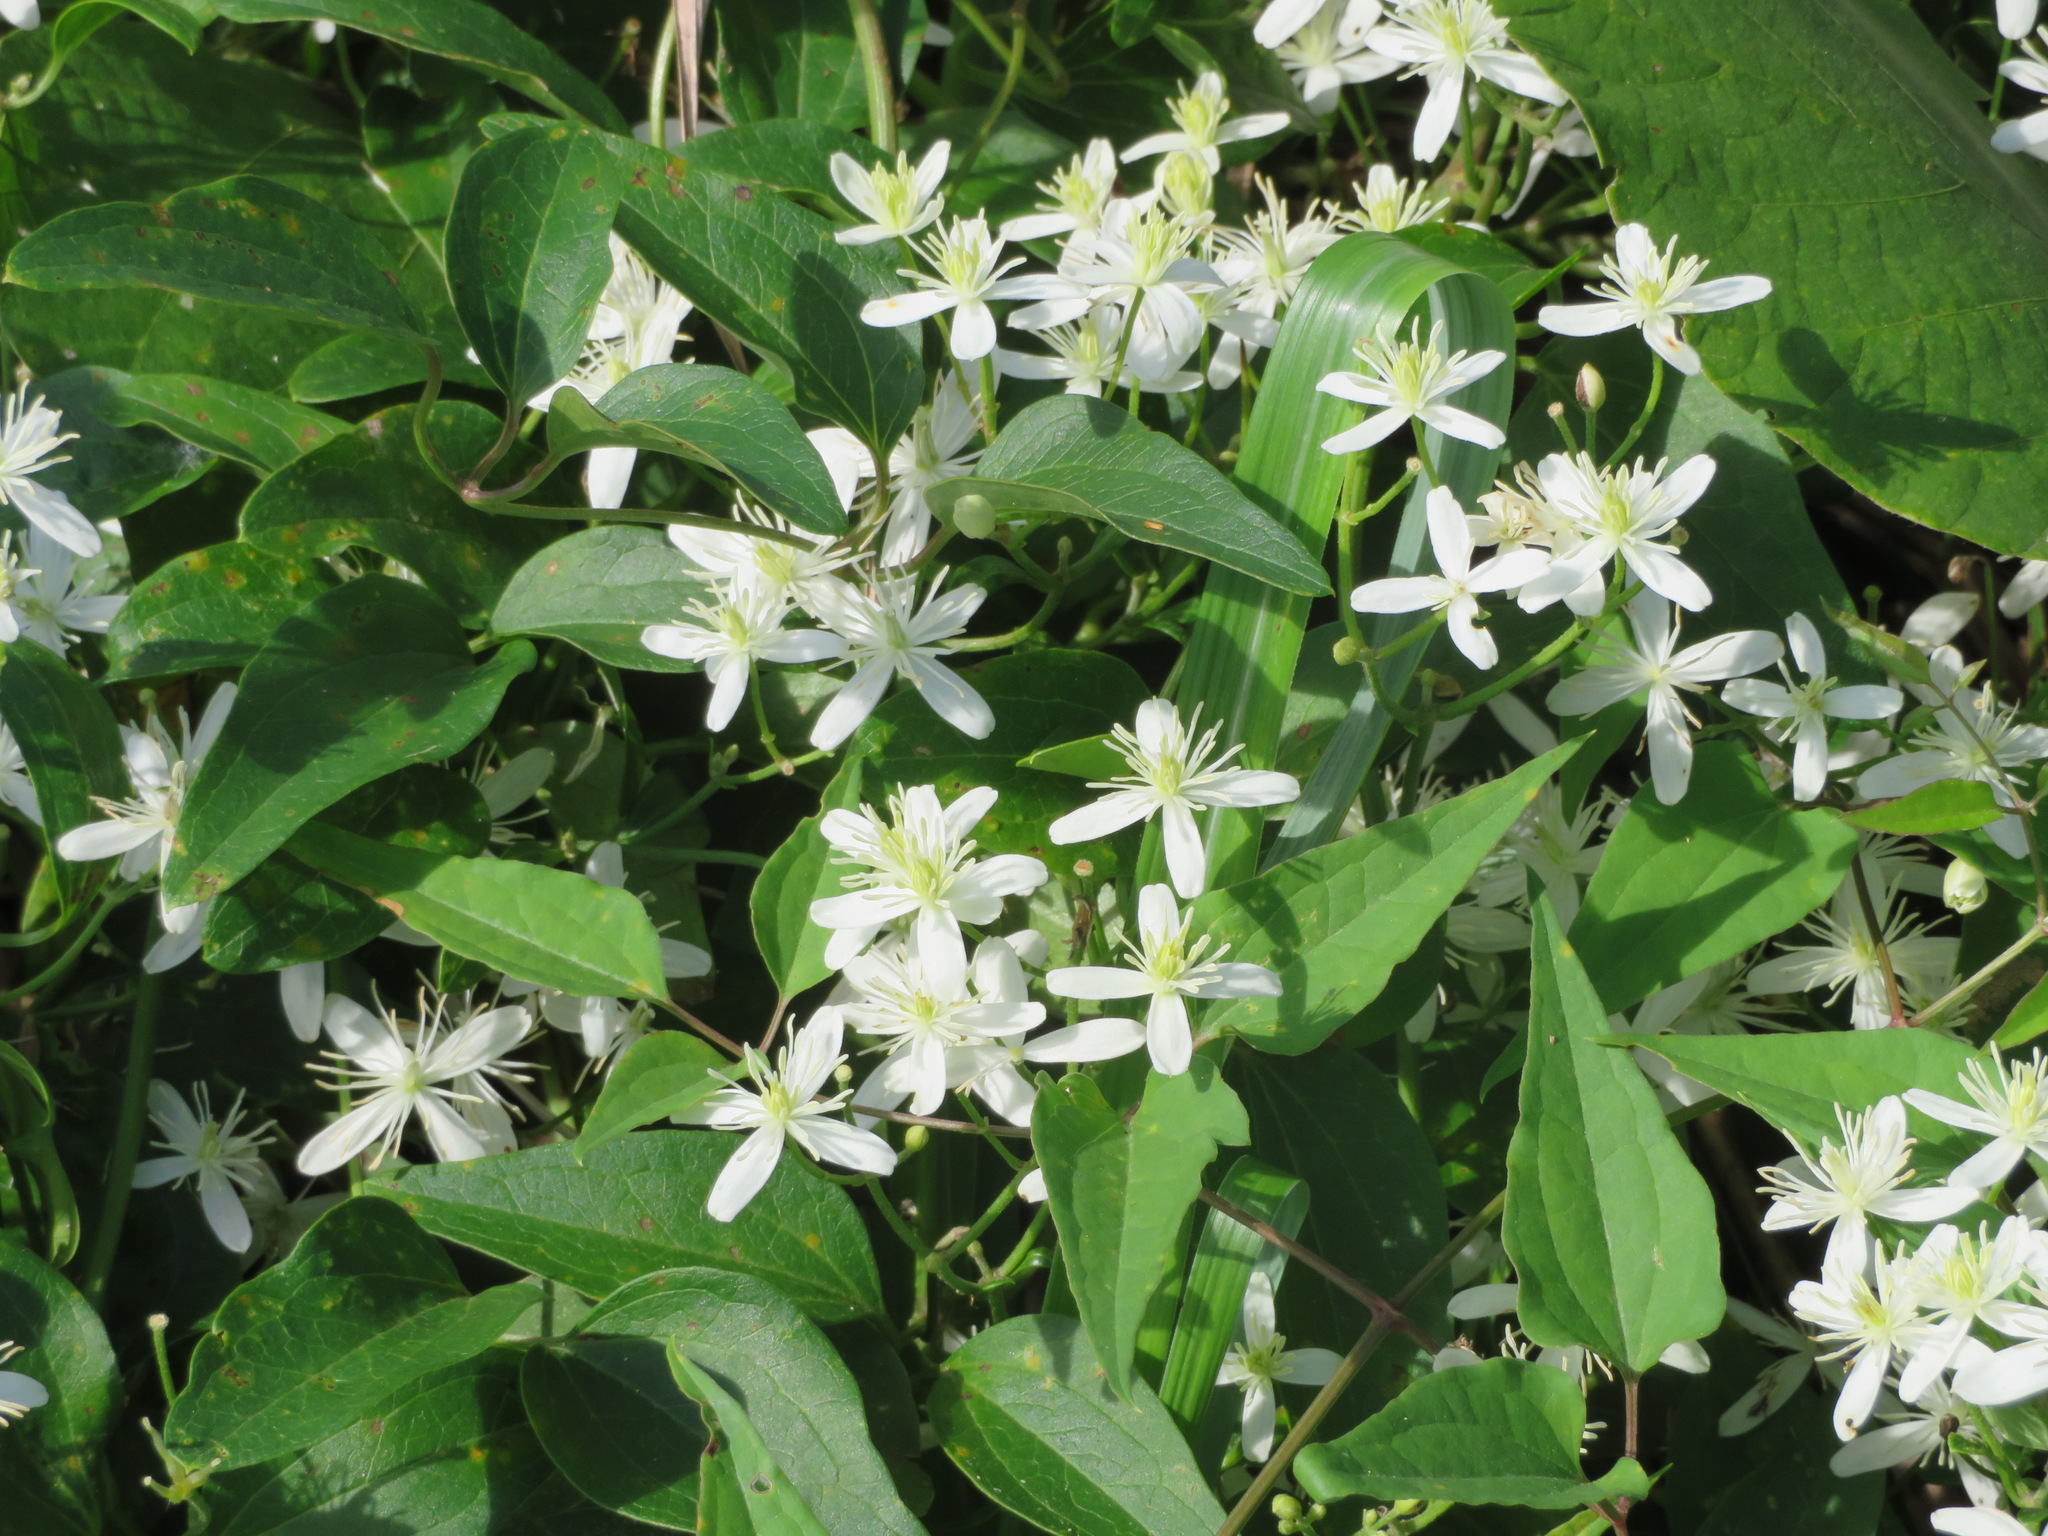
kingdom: Plantae
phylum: Tracheophyta
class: Magnoliopsida
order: Ranunculales
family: Ranunculaceae
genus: Clematis
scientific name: Clematis terniflora
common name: Sweet autumn clematis
